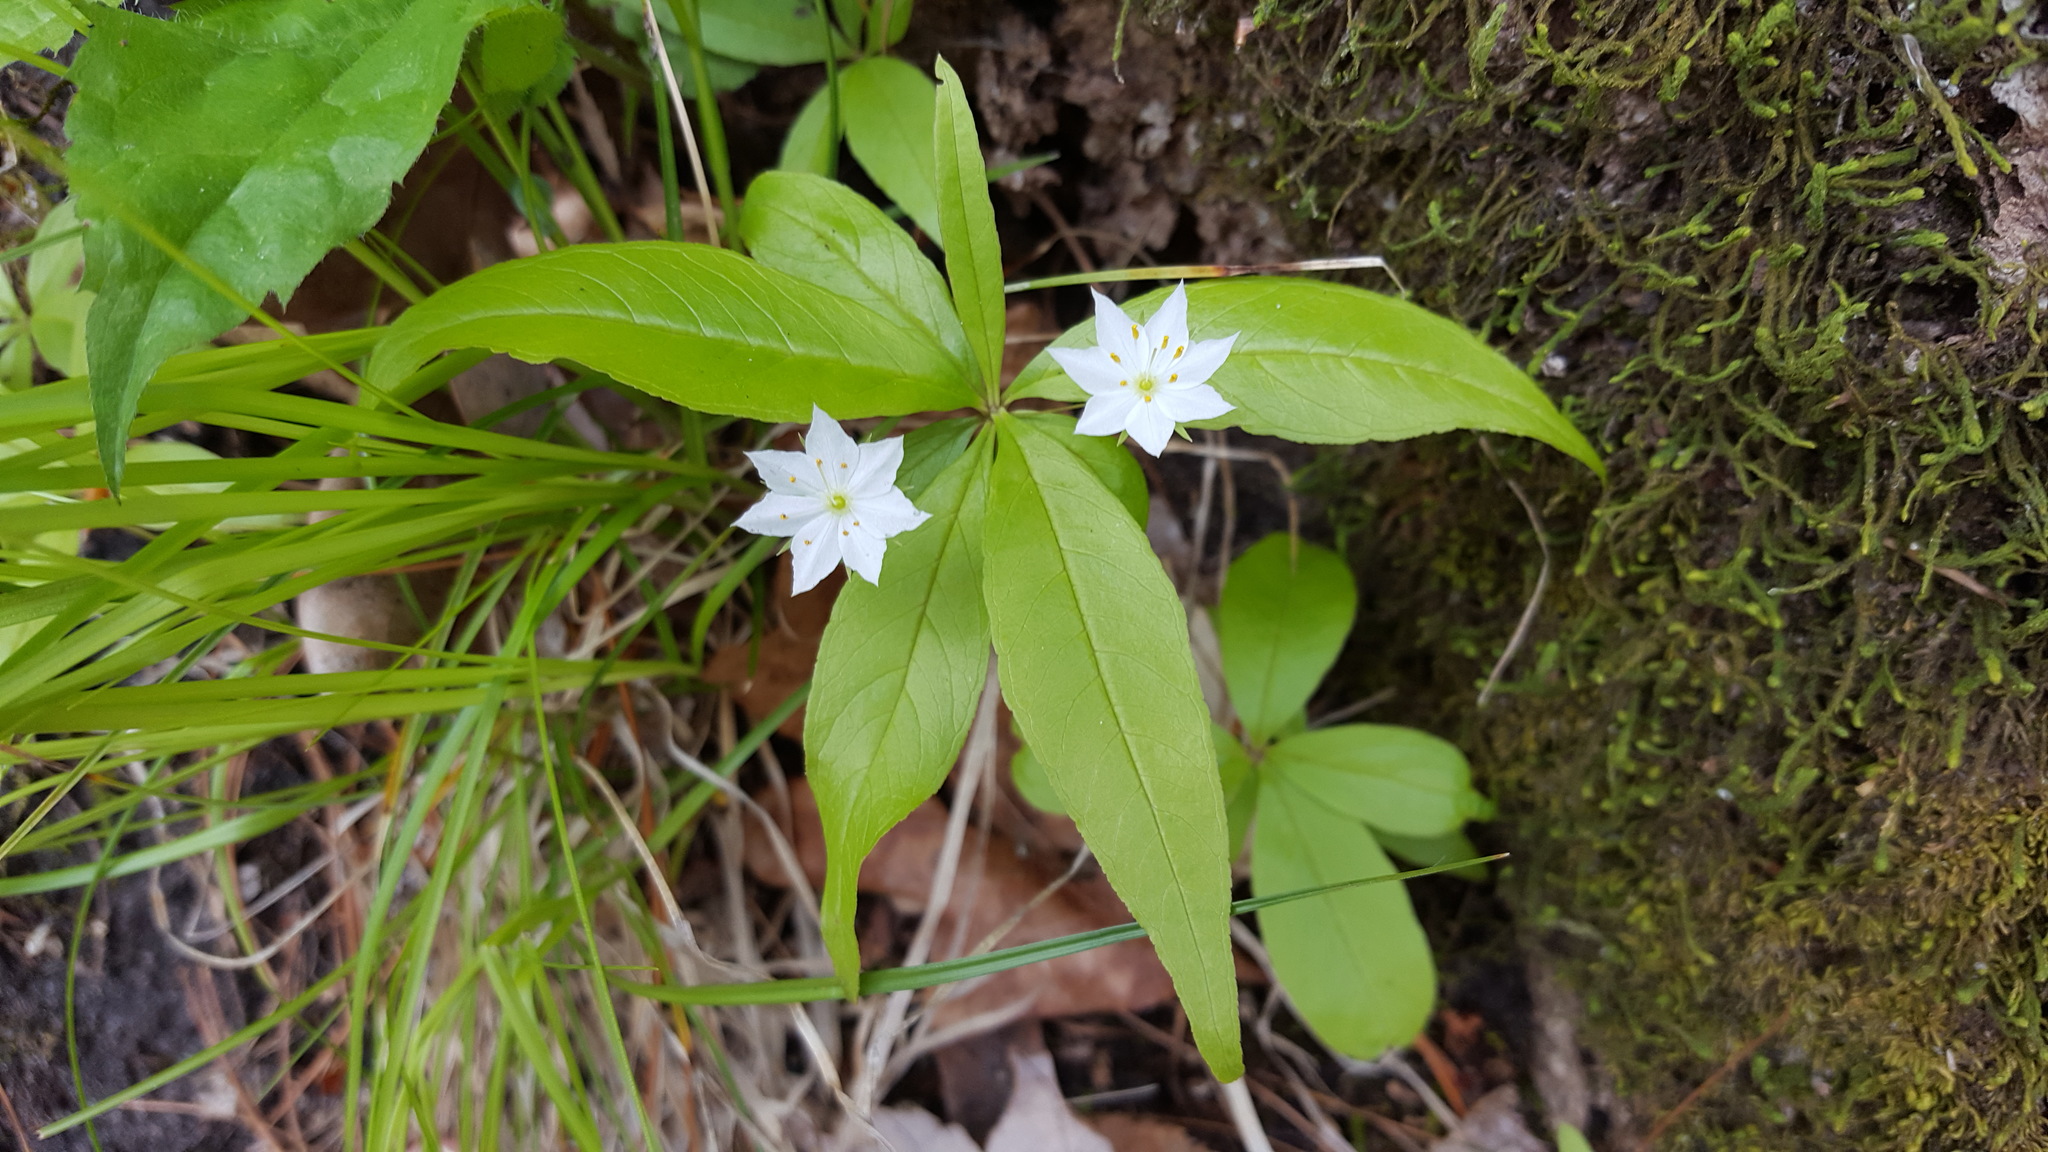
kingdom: Plantae
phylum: Tracheophyta
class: Magnoliopsida
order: Ericales
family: Primulaceae
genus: Lysimachia
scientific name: Lysimachia borealis
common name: American starflower
